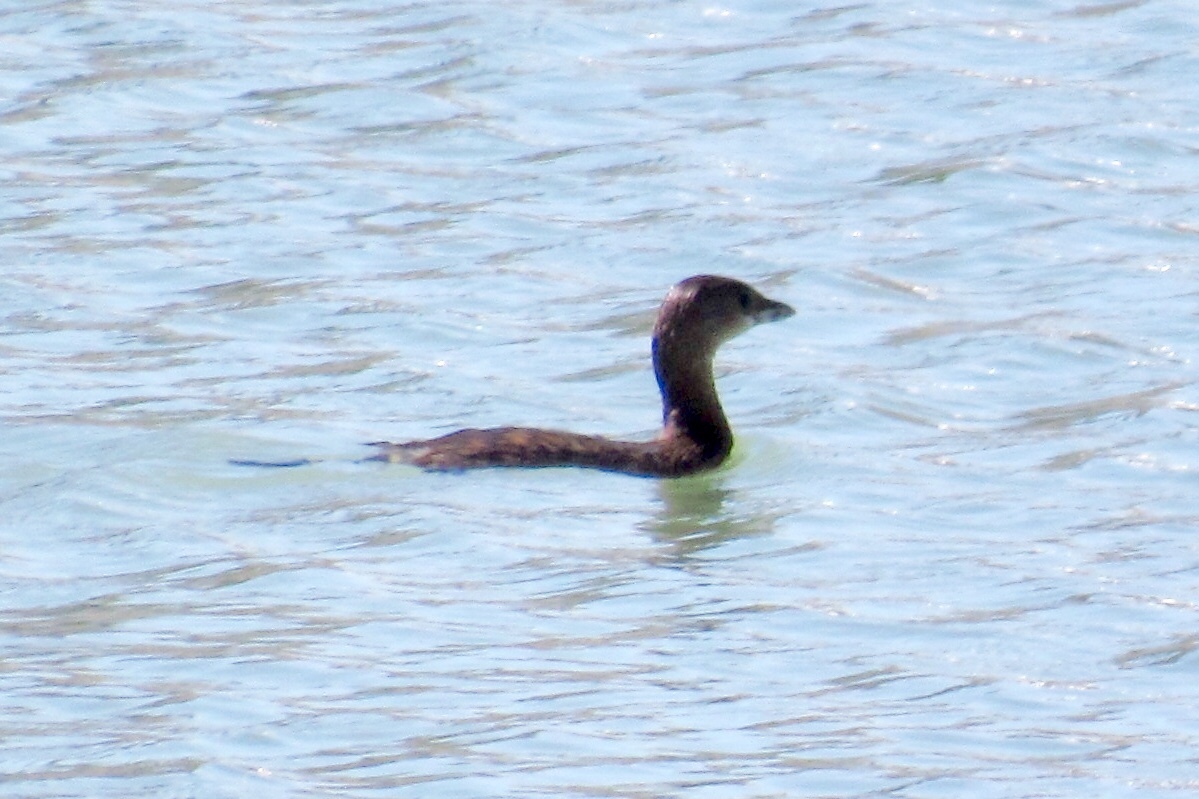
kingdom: Animalia
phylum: Chordata
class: Aves
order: Podicipediformes
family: Podicipedidae
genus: Podilymbus
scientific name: Podilymbus podiceps
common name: Pied-billed grebe
